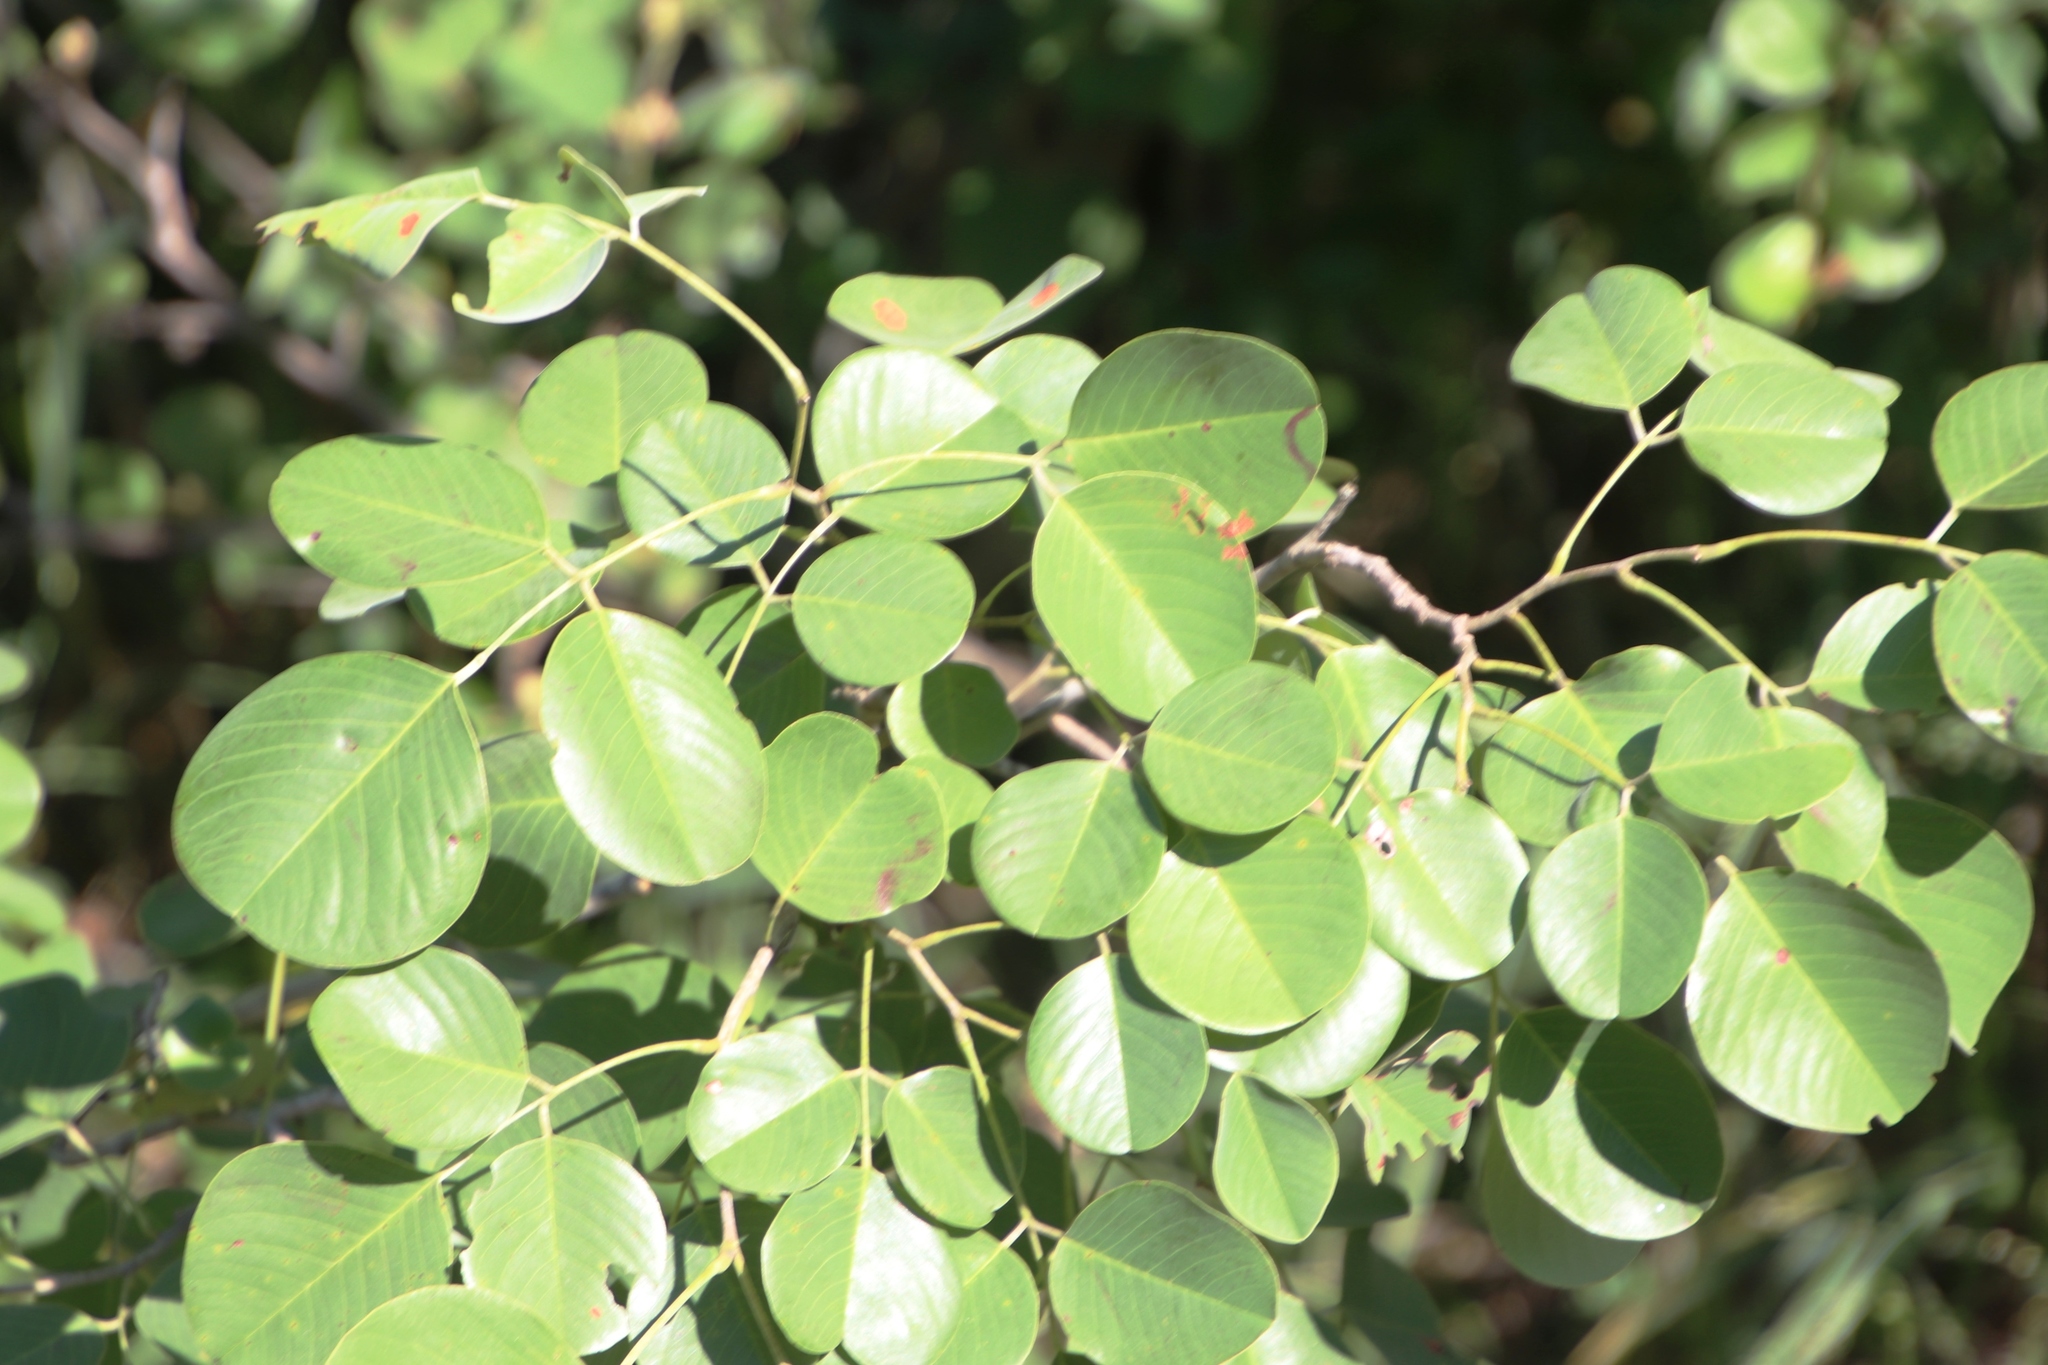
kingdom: Plantae
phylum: Tracheophyta
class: Magnoliopsida
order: Fabales
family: Fabaceae
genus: Pterocarpus
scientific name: Pterocarpus rotundifolius
